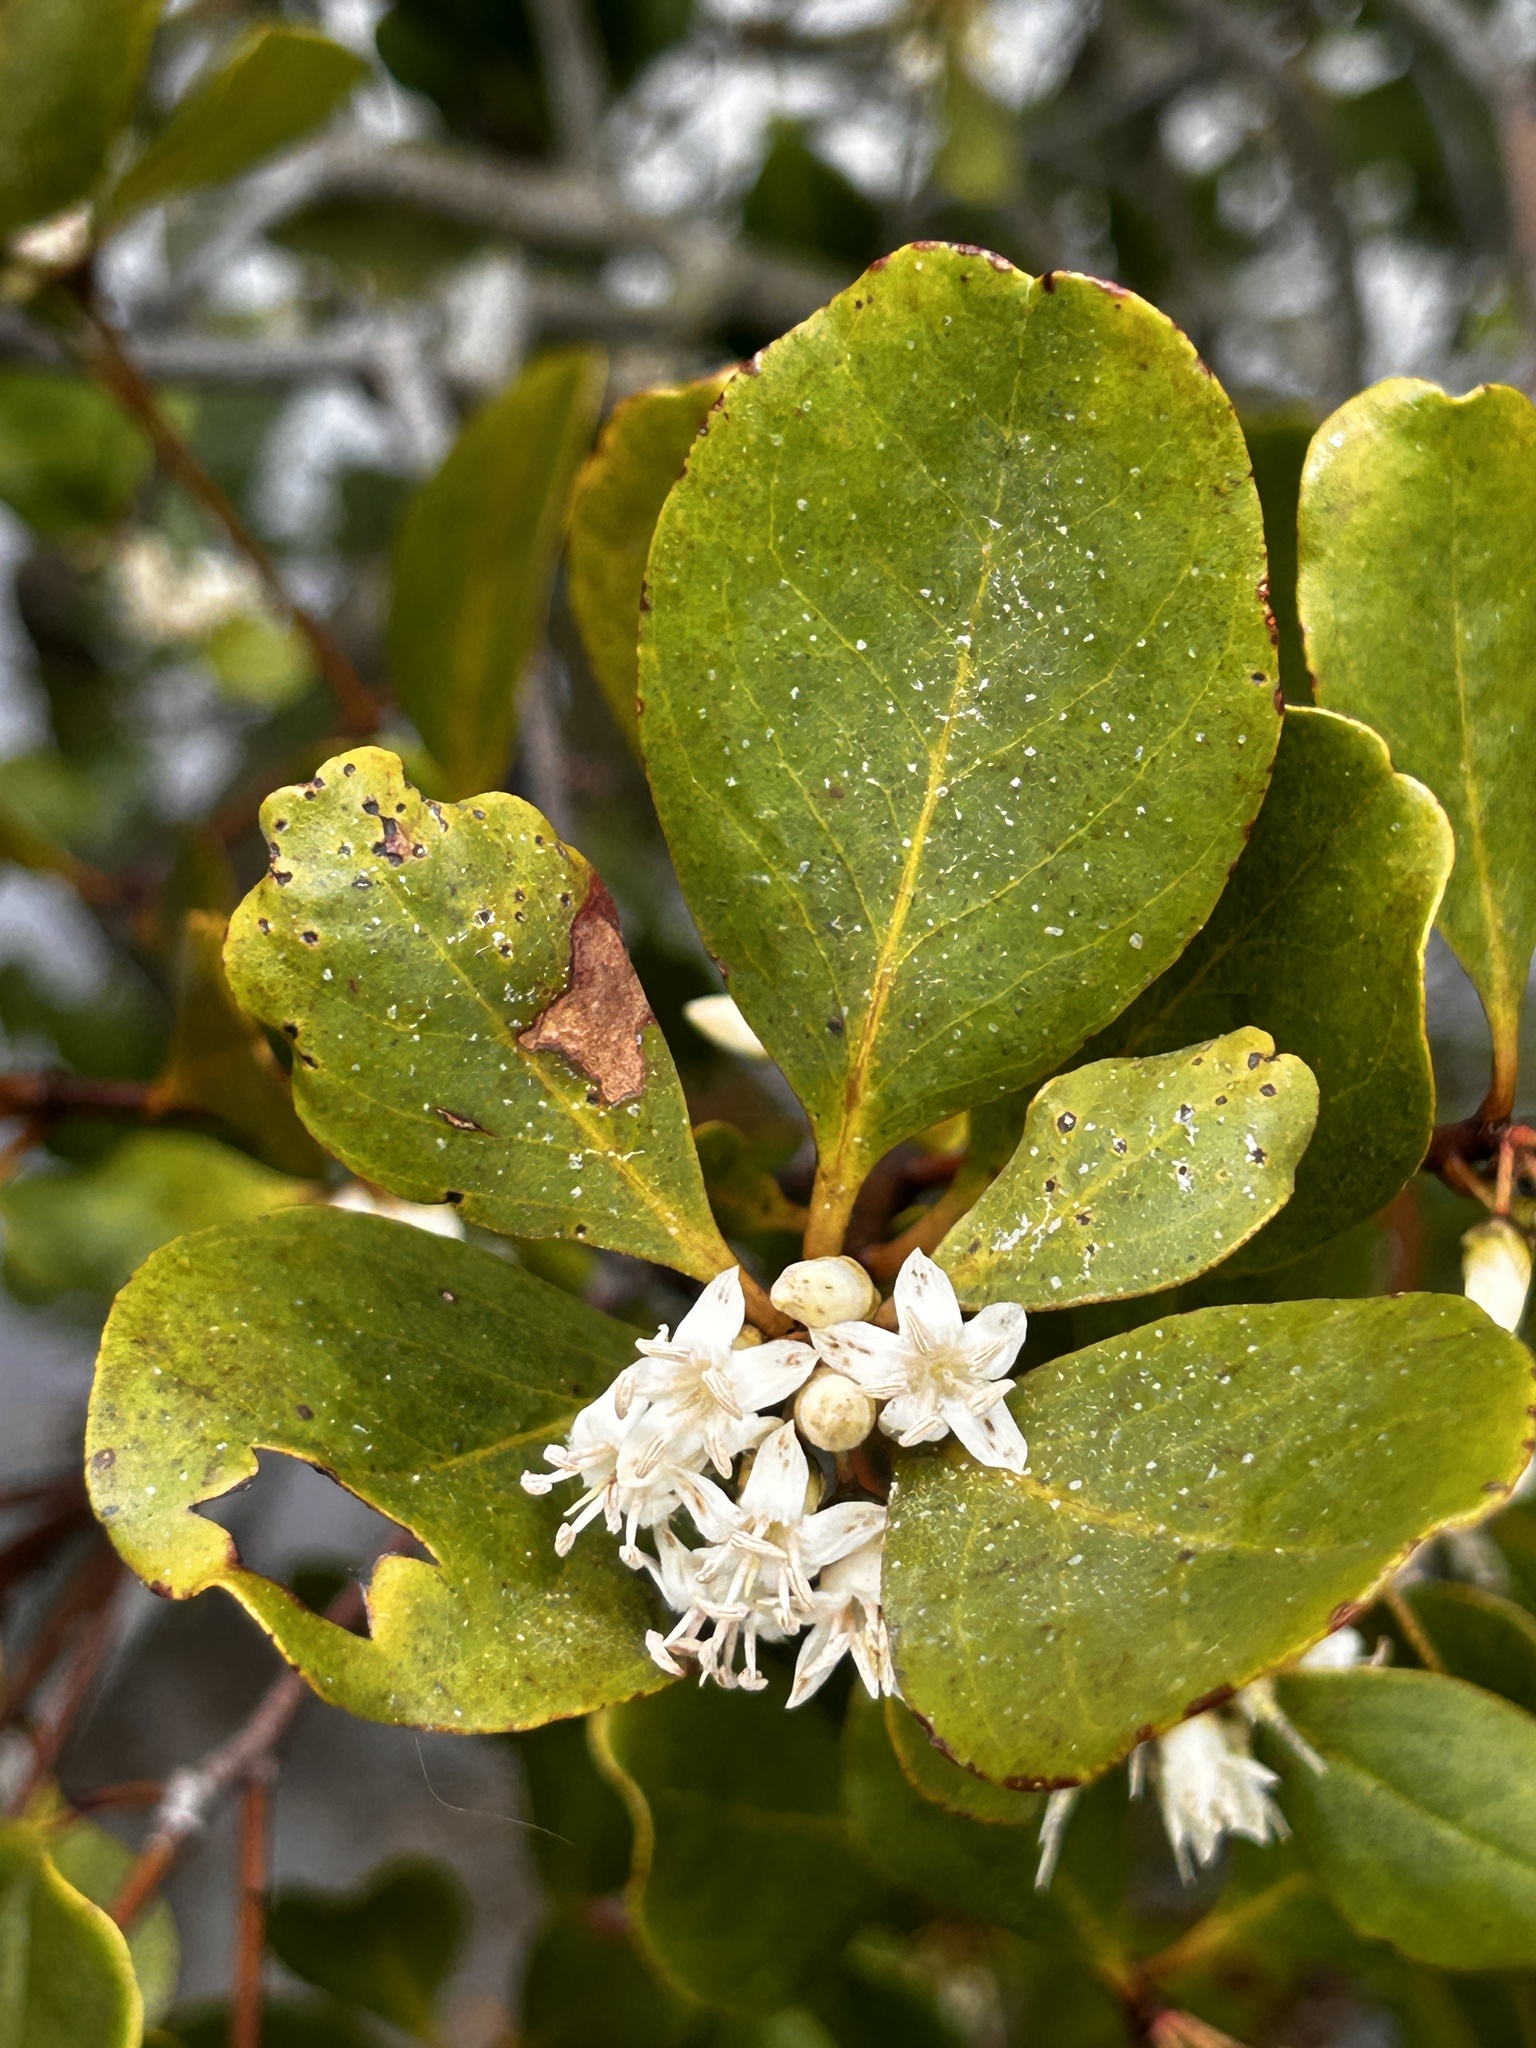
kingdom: Plantae
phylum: Tracheophyta
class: Magnoliopsida
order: Ericales
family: Primulaceae
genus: Aegiceras
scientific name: Aegiceras corniculatum
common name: River mangrove
